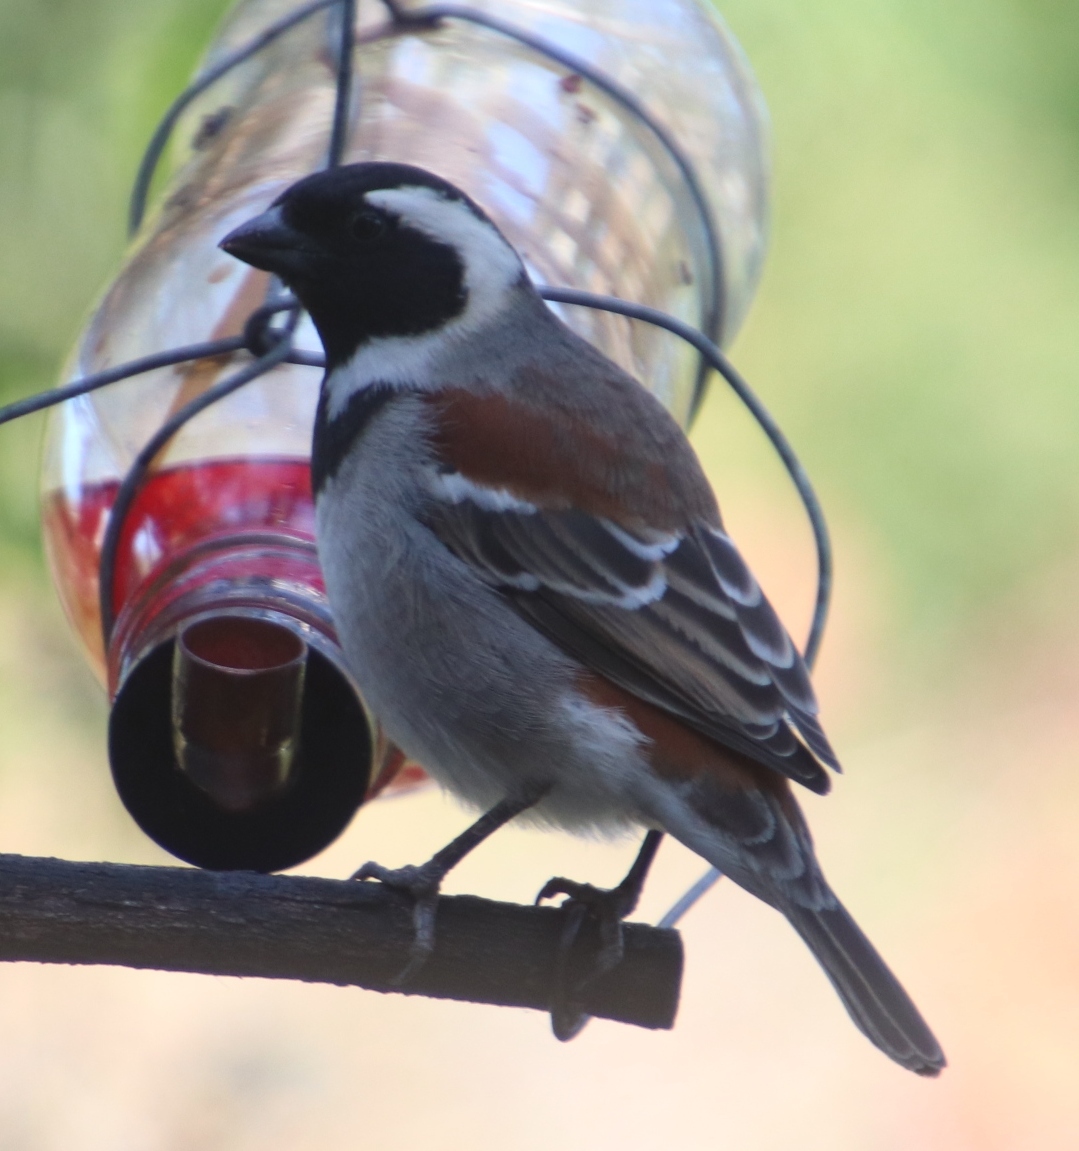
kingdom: Animalia
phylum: Chordata
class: Aves
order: Passeriformes
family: Passeridae
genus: Passer
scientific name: Passer melanurus
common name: Cape sparrow
